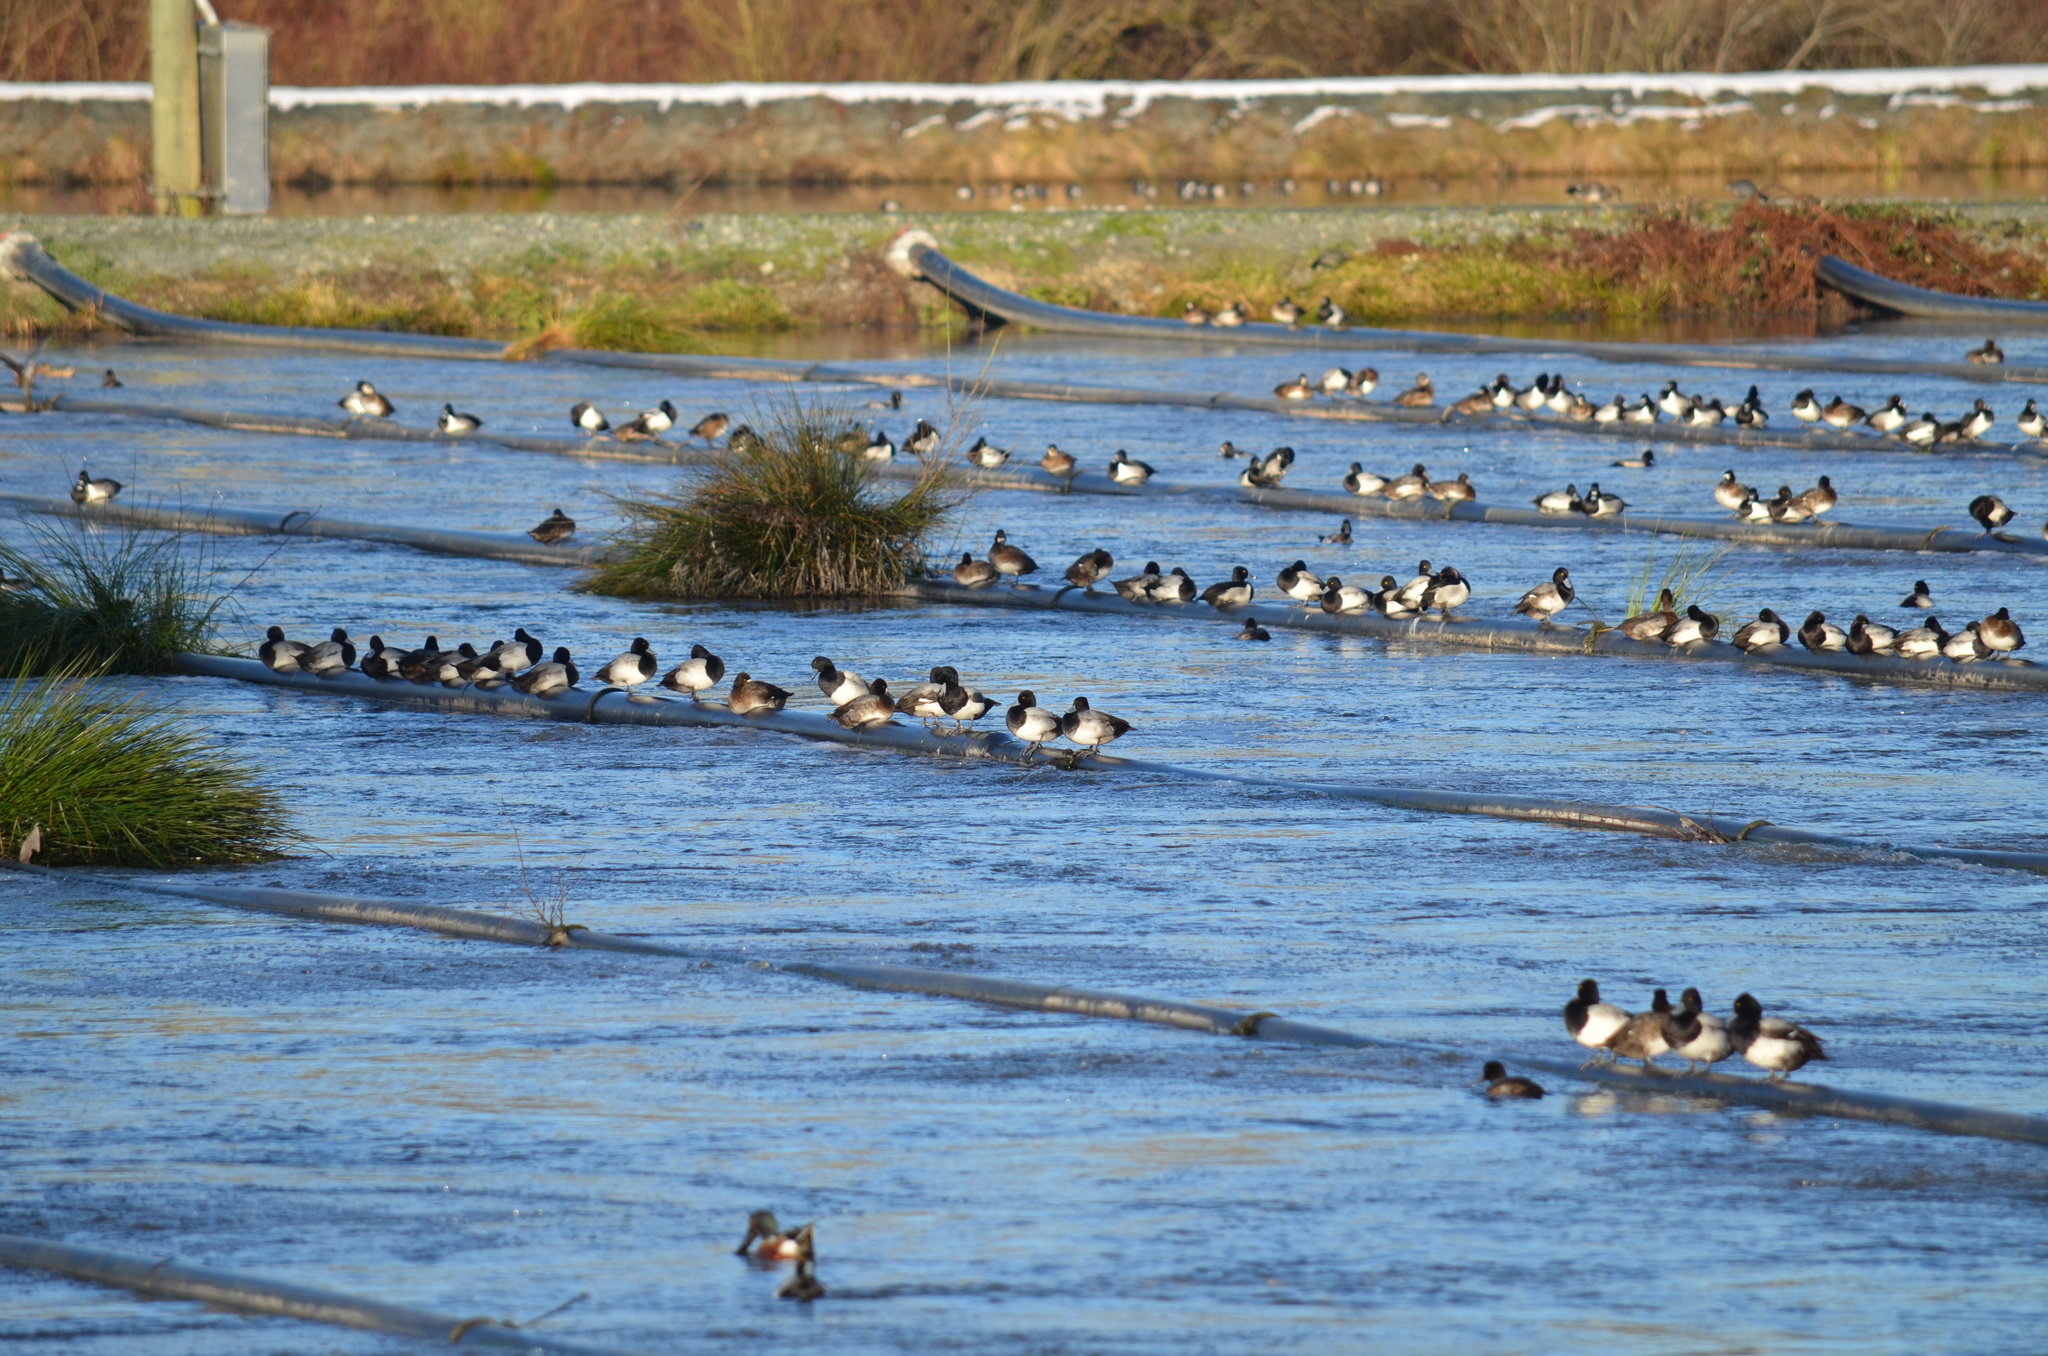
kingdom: Animalia
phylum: Chordata
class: Aves
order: Anseriformes
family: Anatidae
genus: Aythya
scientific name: Aythya affinis
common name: Lesser scaup
